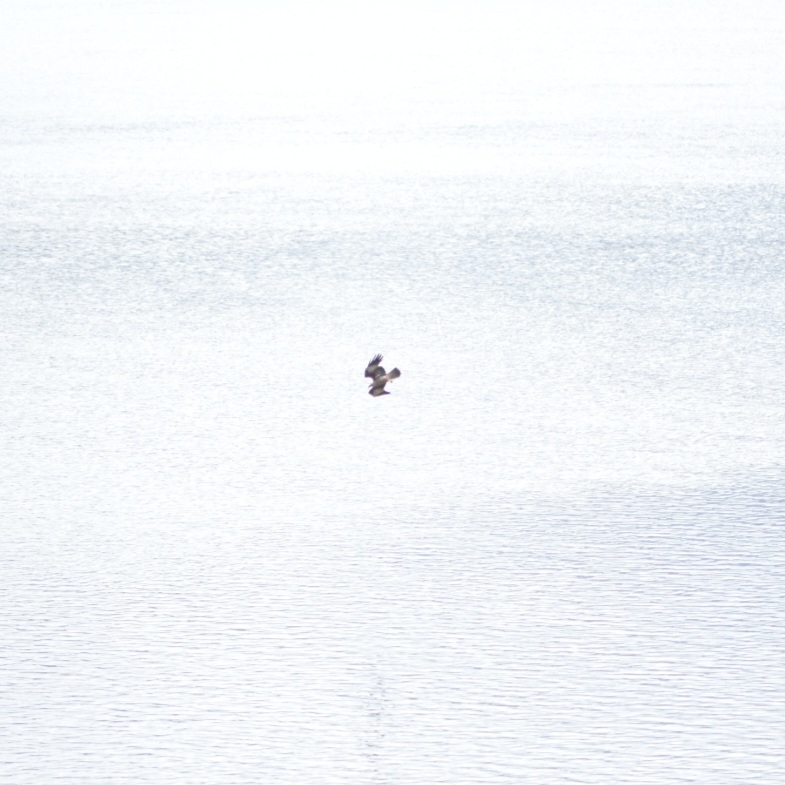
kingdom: Animalia
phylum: Chordata
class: Aves
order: Accipitriformes
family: Accipitridae
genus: Haliastur
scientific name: Haliastur indus
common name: Brahminy kite
